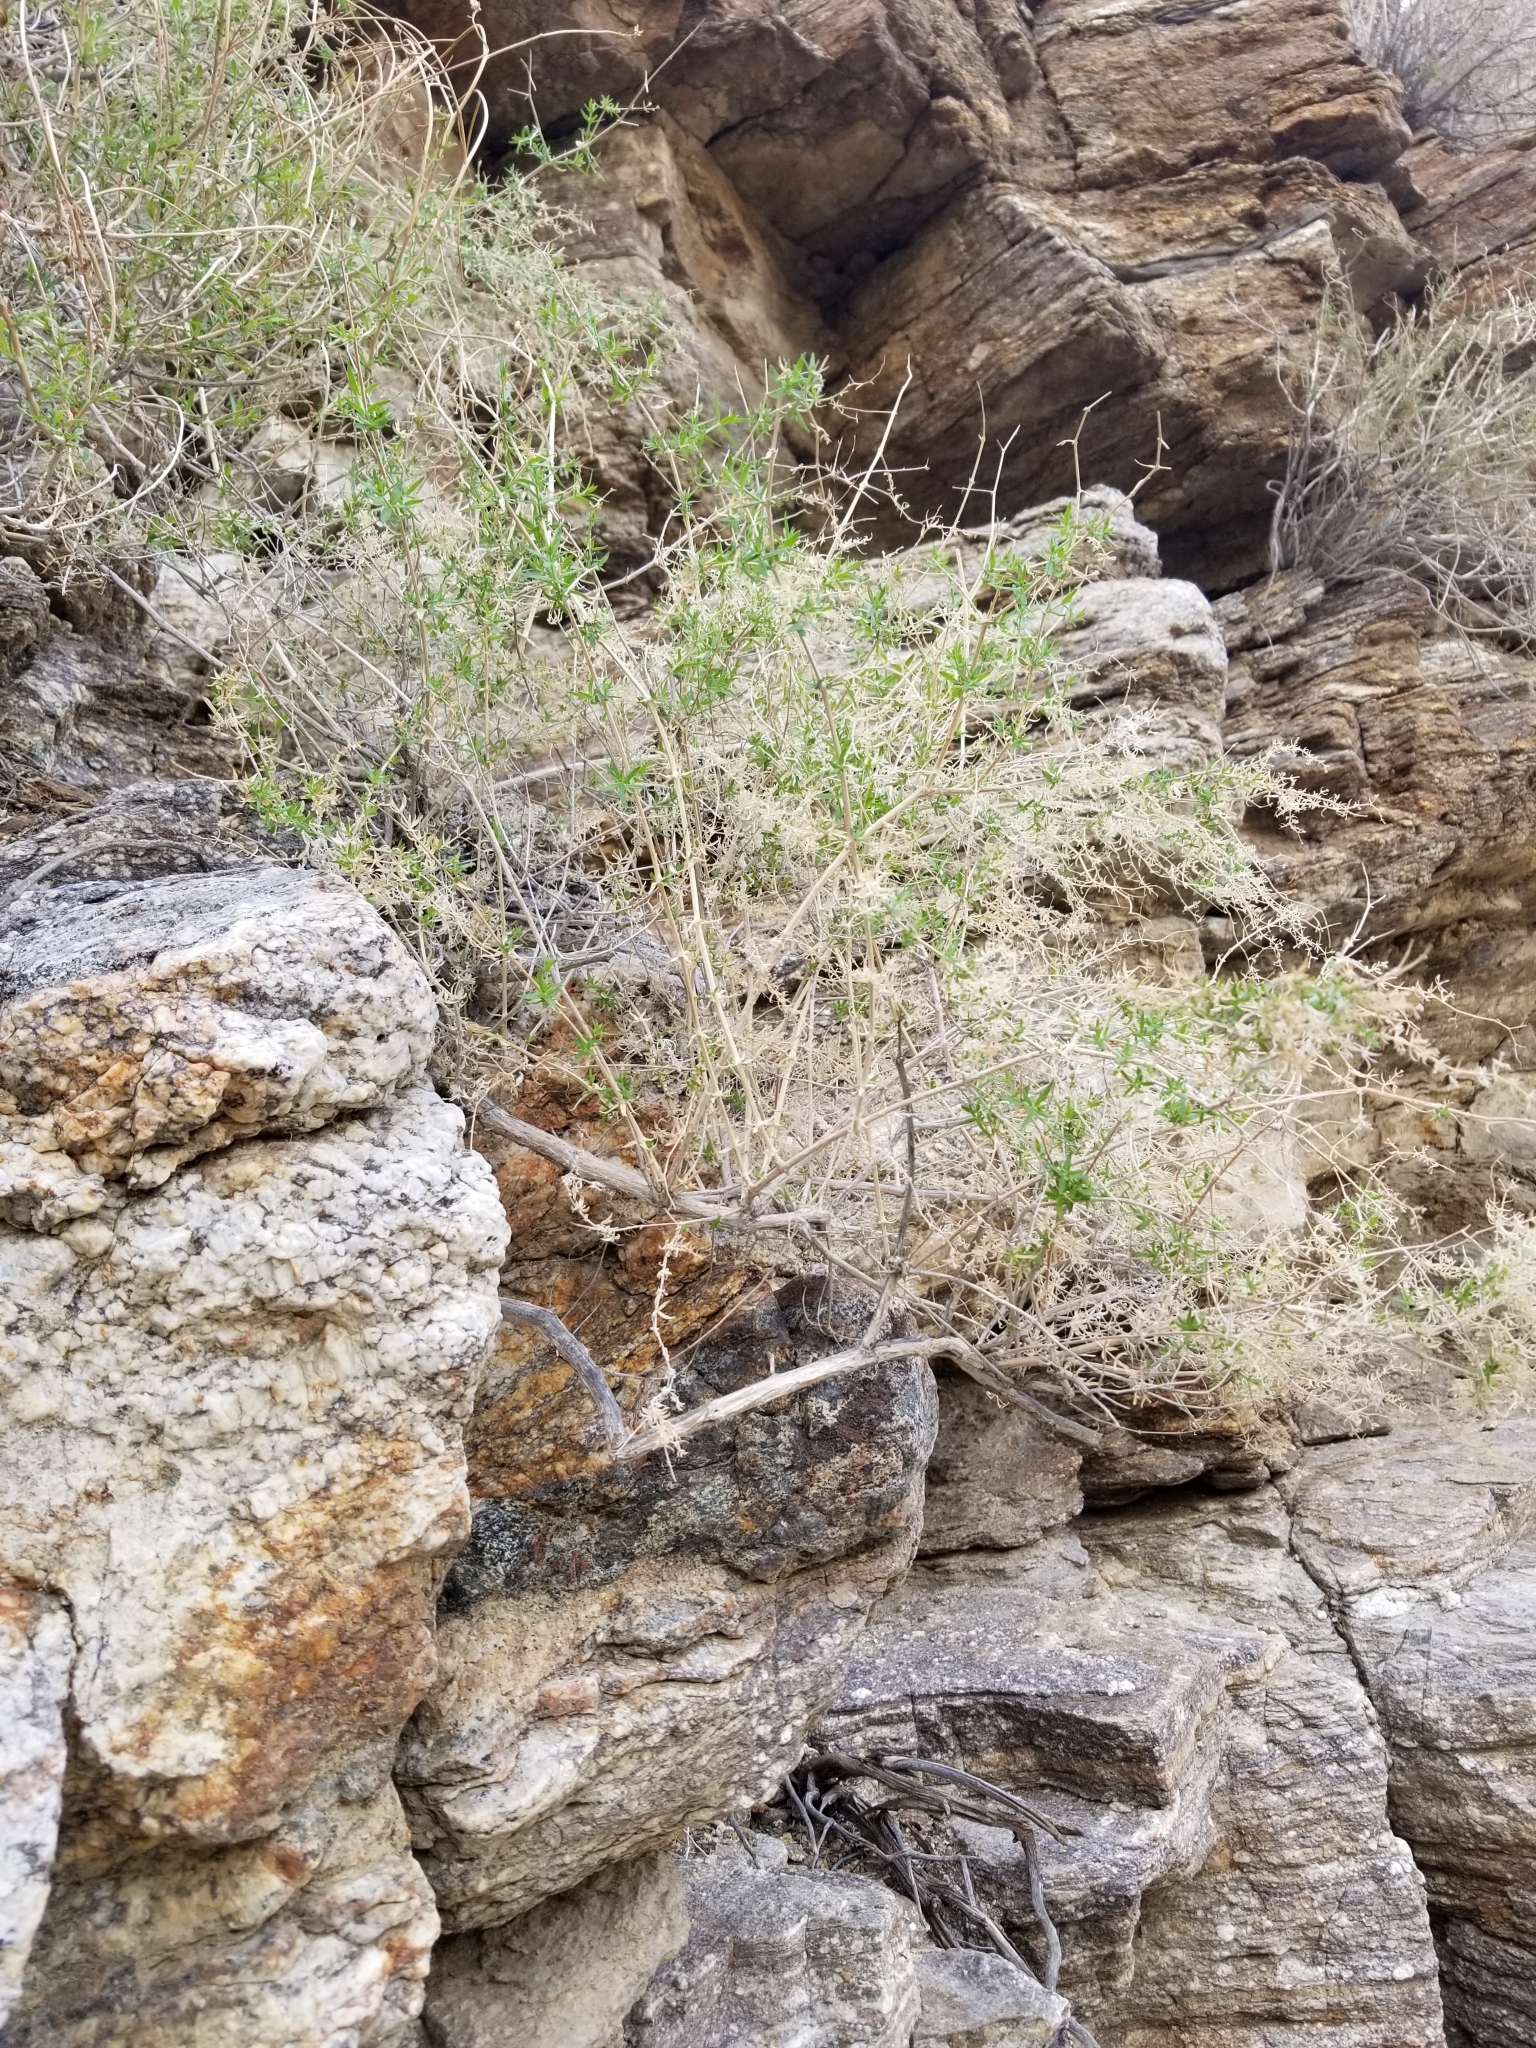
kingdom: Plantae
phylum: Tracheophyta
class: Magnoliopsida
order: Gentianales
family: Rubiaceae
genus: Galium
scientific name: Galium stellatum
